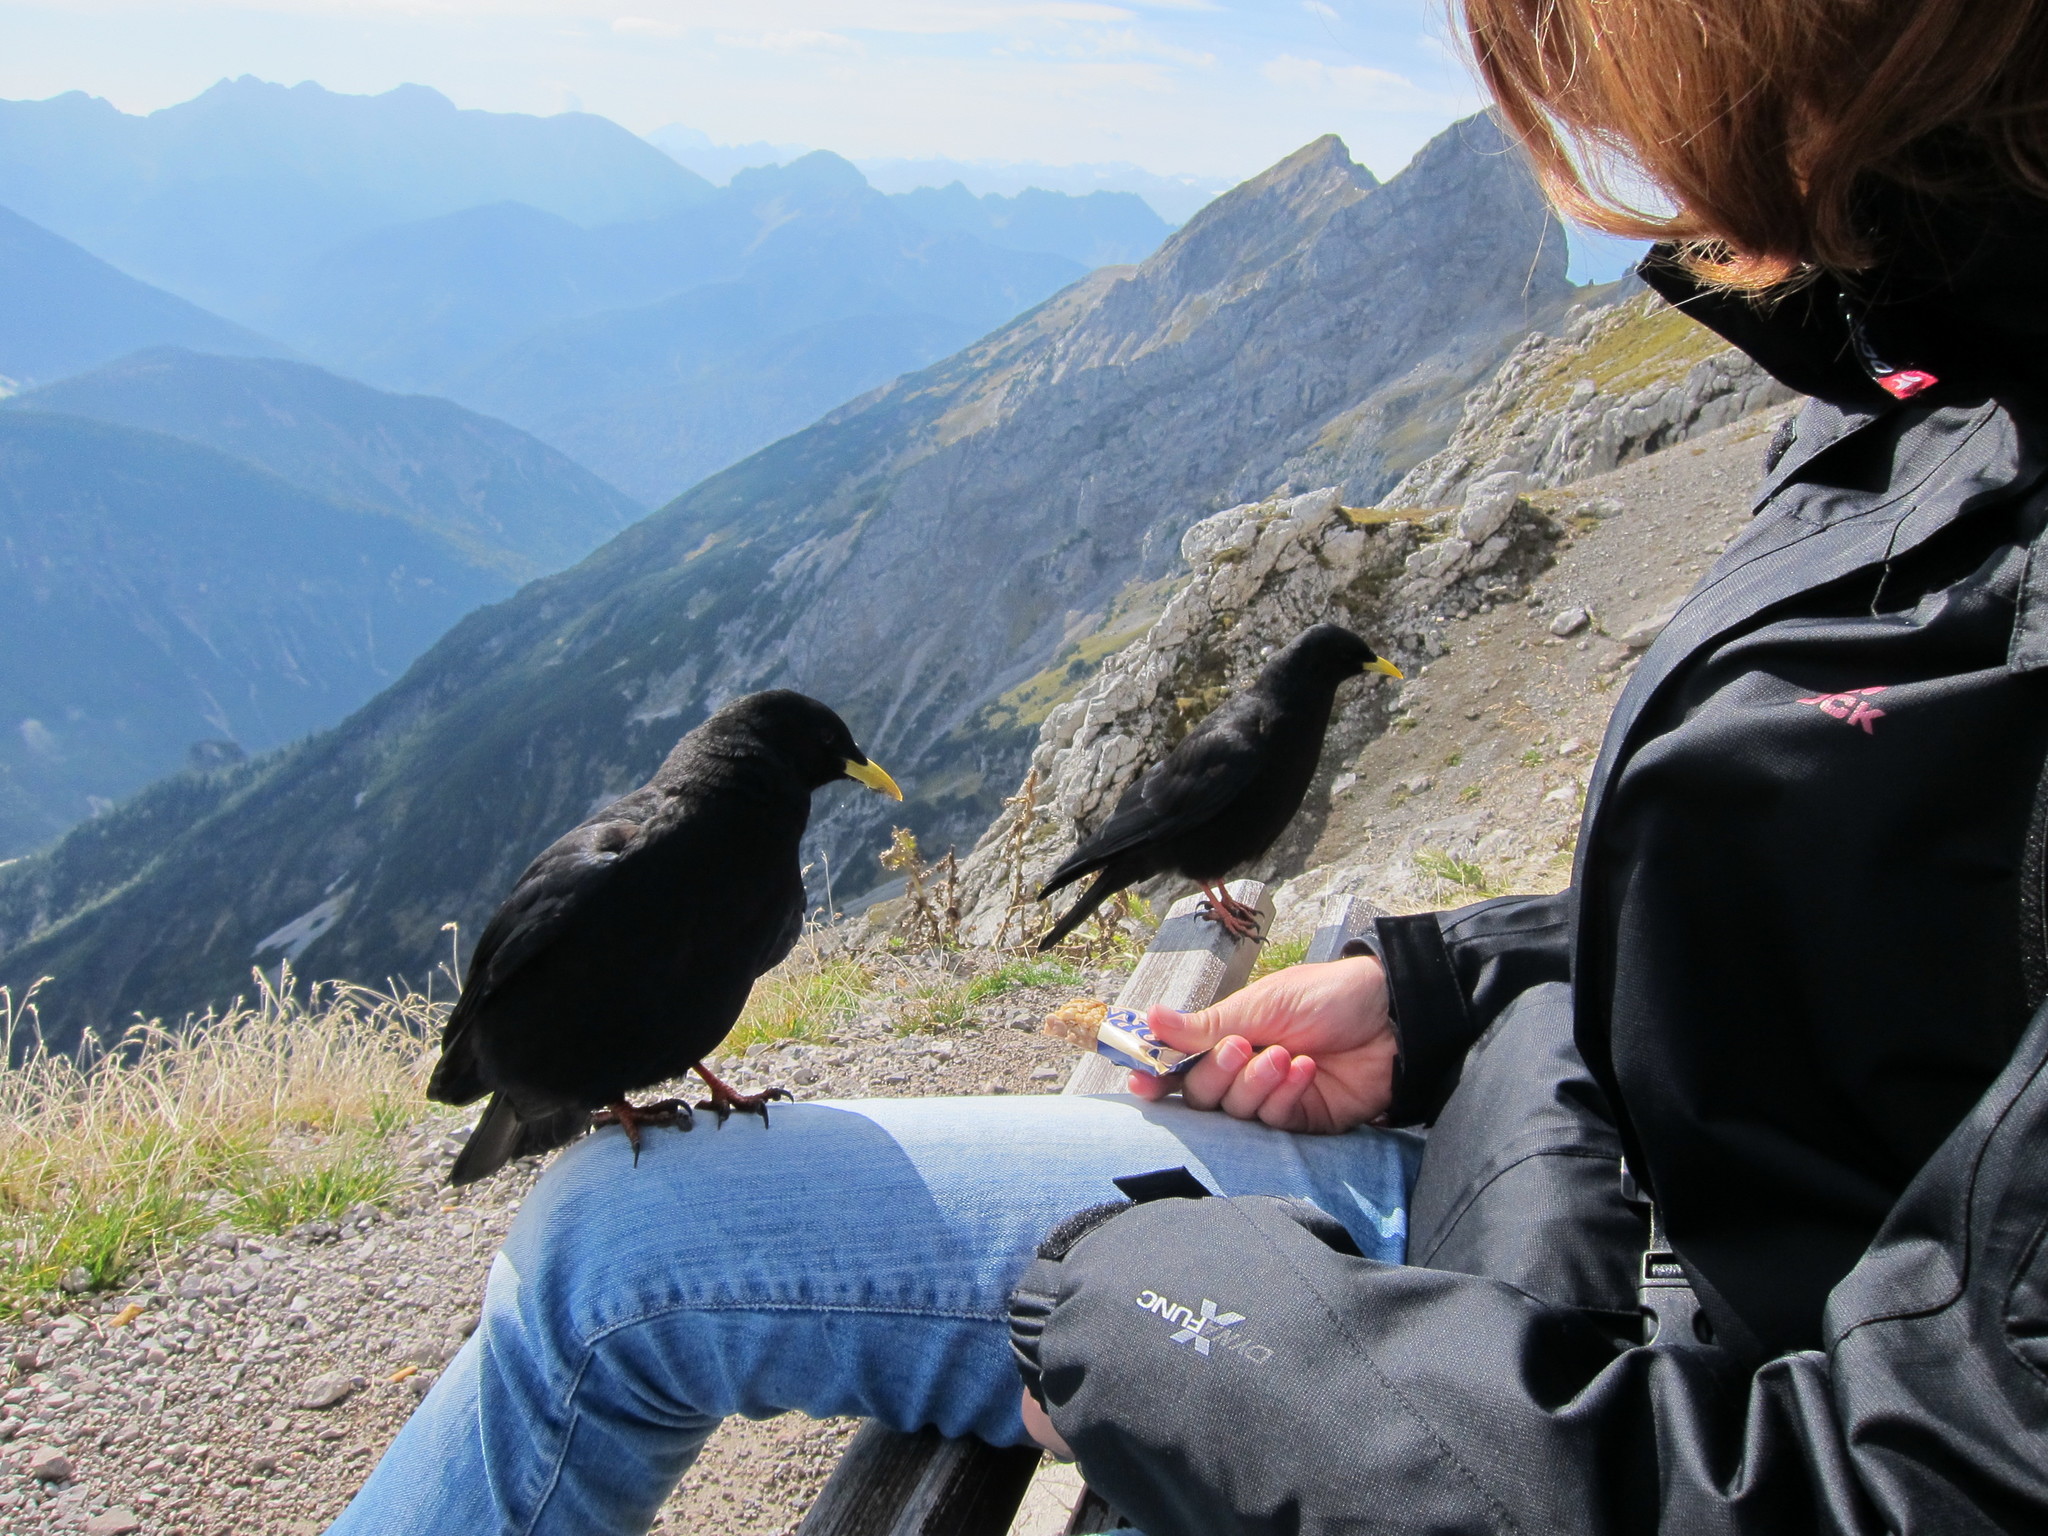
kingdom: Animalia
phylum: Chordata
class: Aves
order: Passeriformes
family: Corvidae
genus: Pyrrhocorax
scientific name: Pyrrhocorax graculus
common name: Alpine chough
